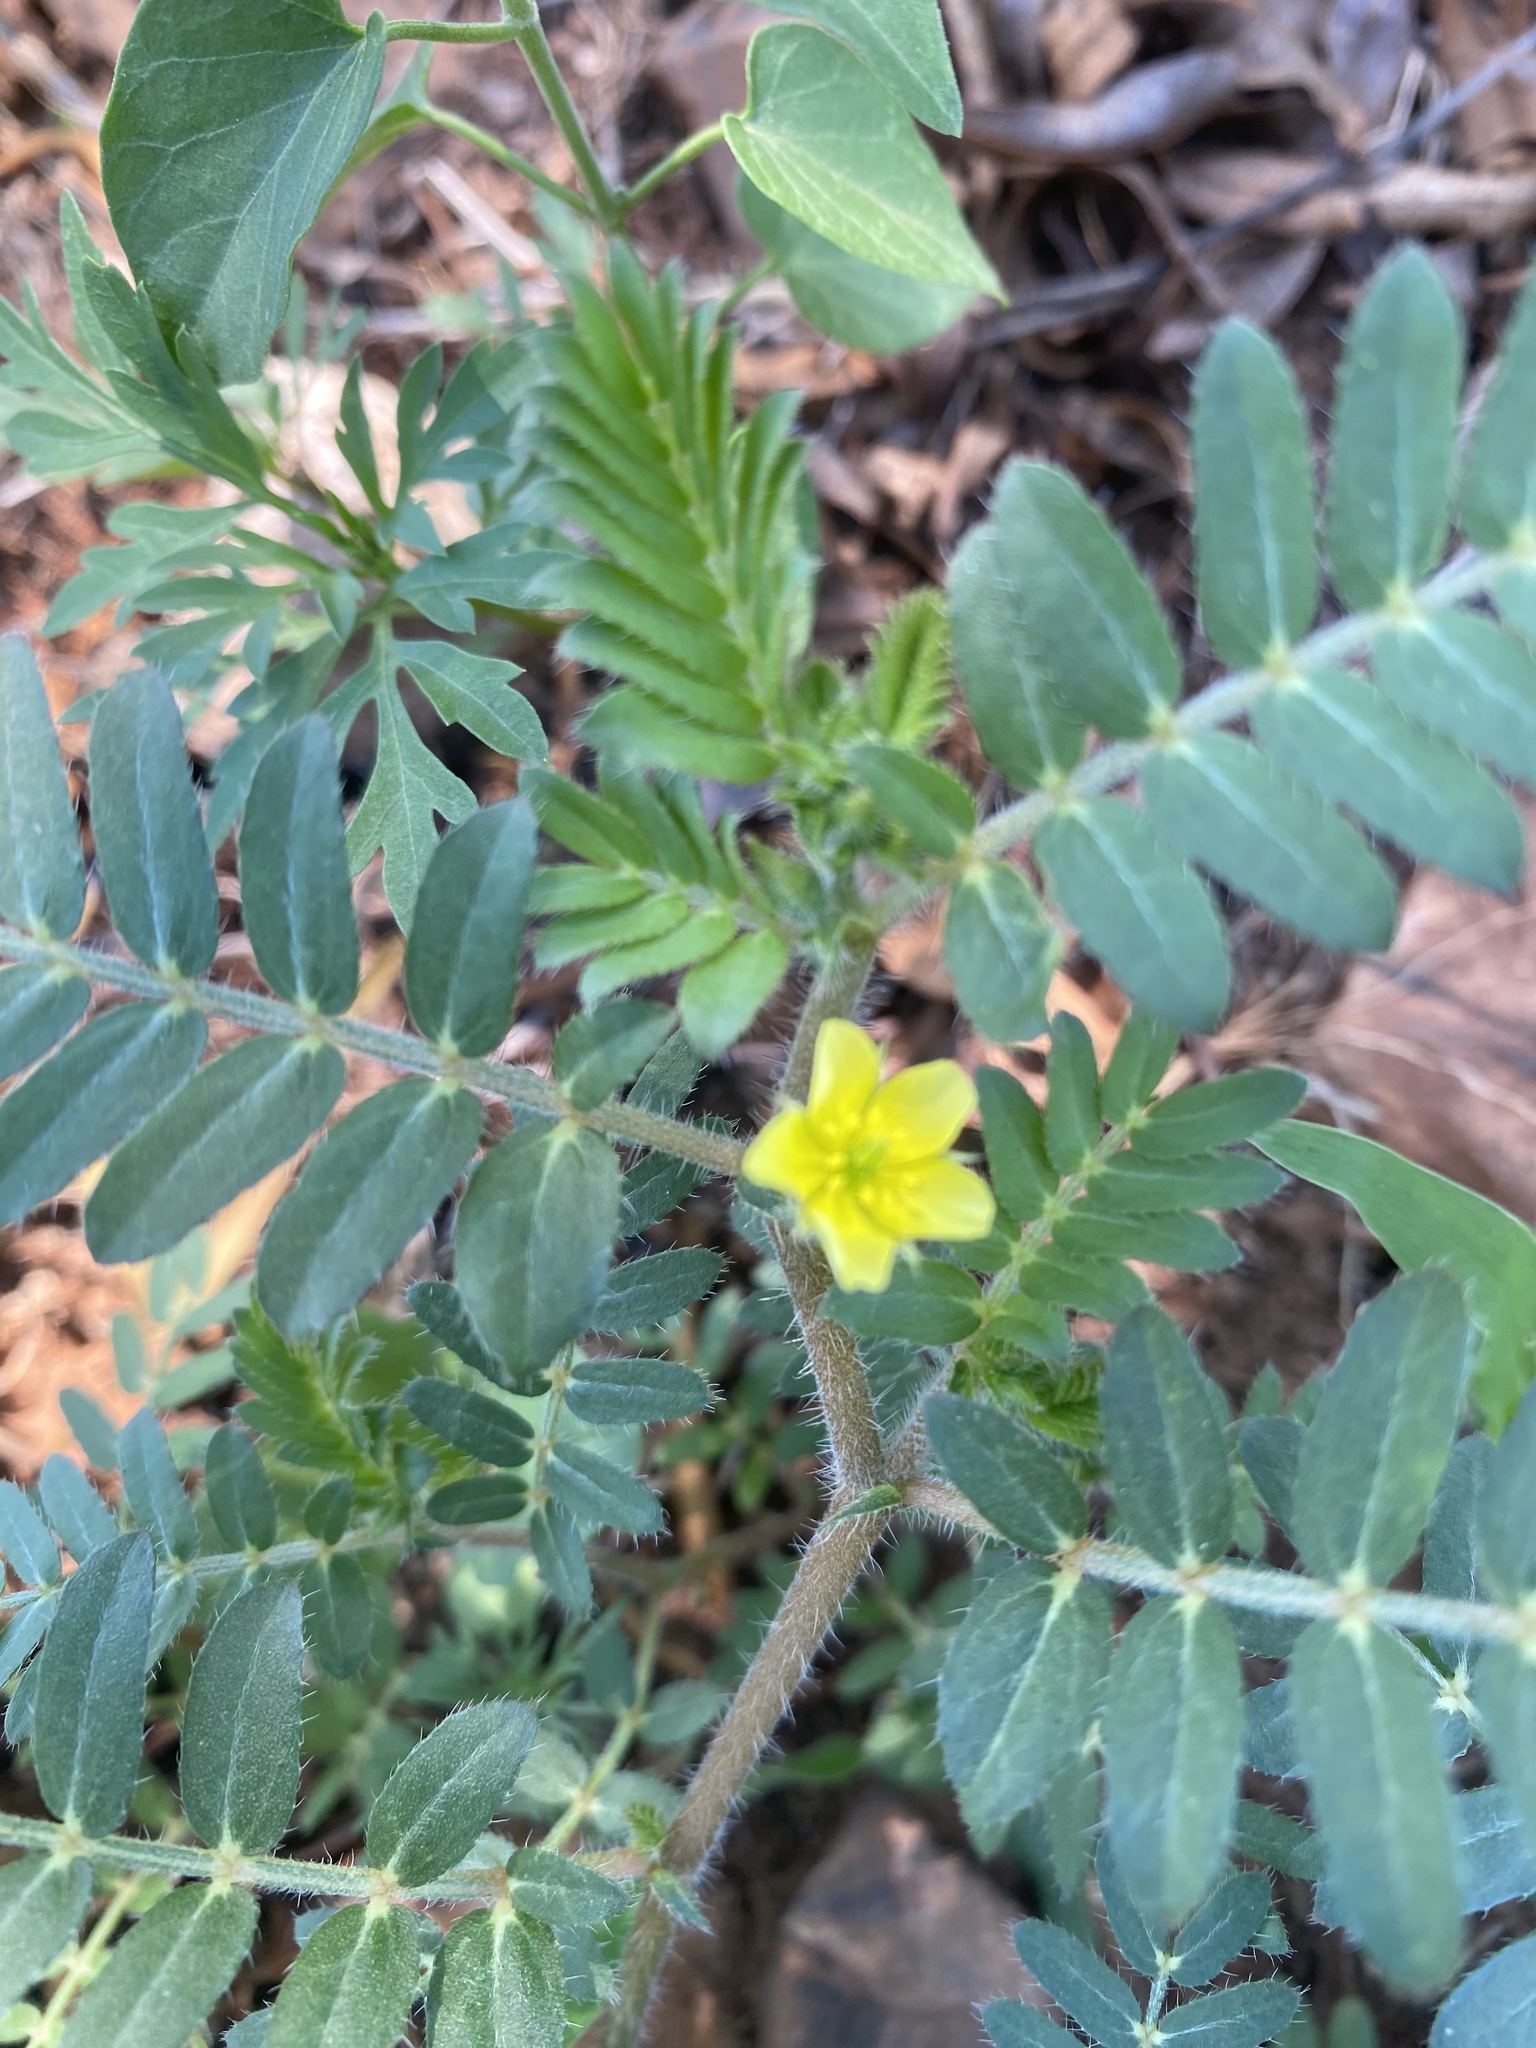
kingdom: Plantae
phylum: Tracheophyta
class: Magnoliopsida
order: Zygophyllales
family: Zygophyllaceae
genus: Tribulus
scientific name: Tribulus terrestris
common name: Puncturevine
